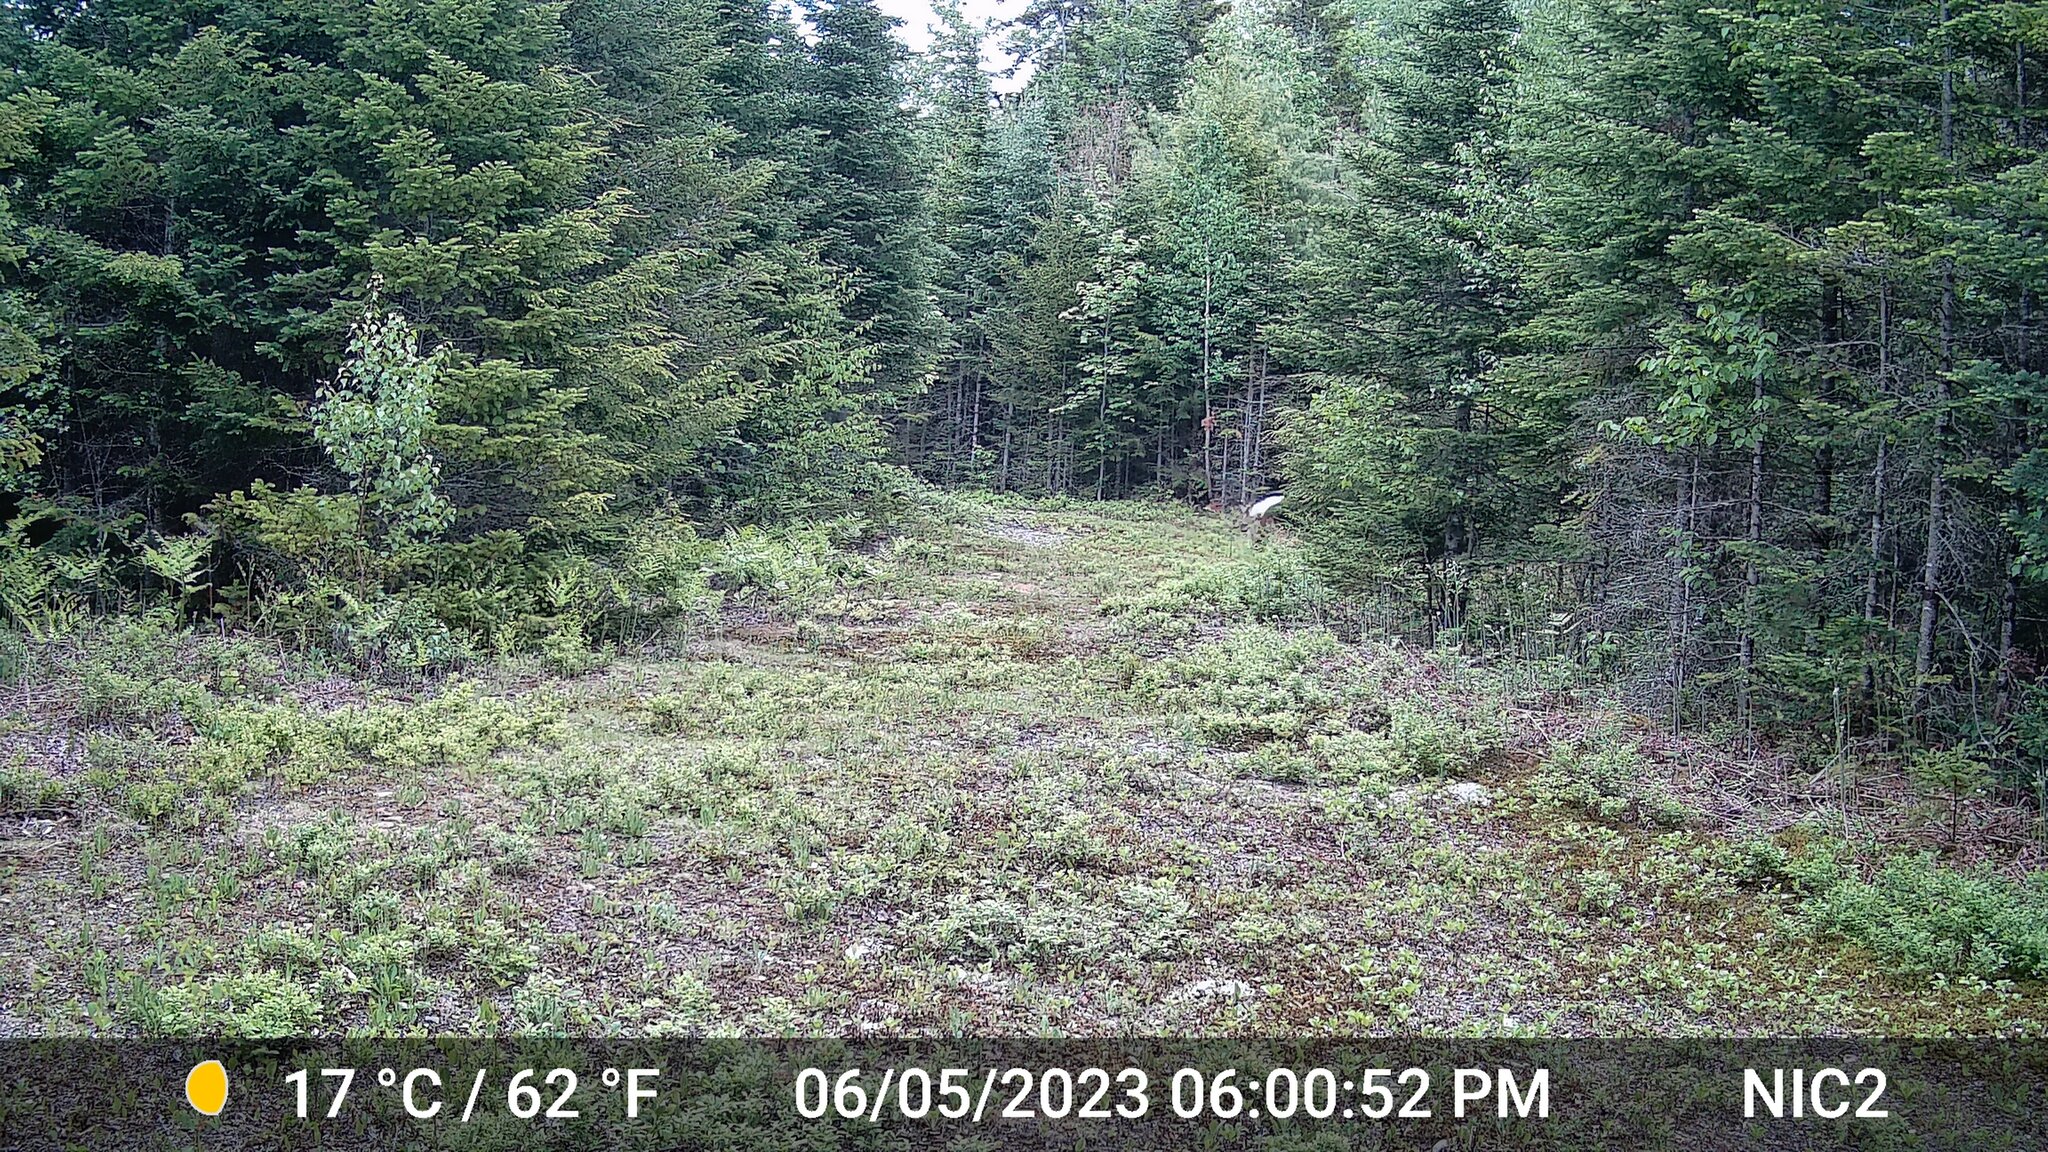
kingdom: Animalia
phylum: Chordata
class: Mammalia
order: Artiodactyla
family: Cervidae
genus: Odocoileus
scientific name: Odocoileus virginianus
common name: White-tailed deer
